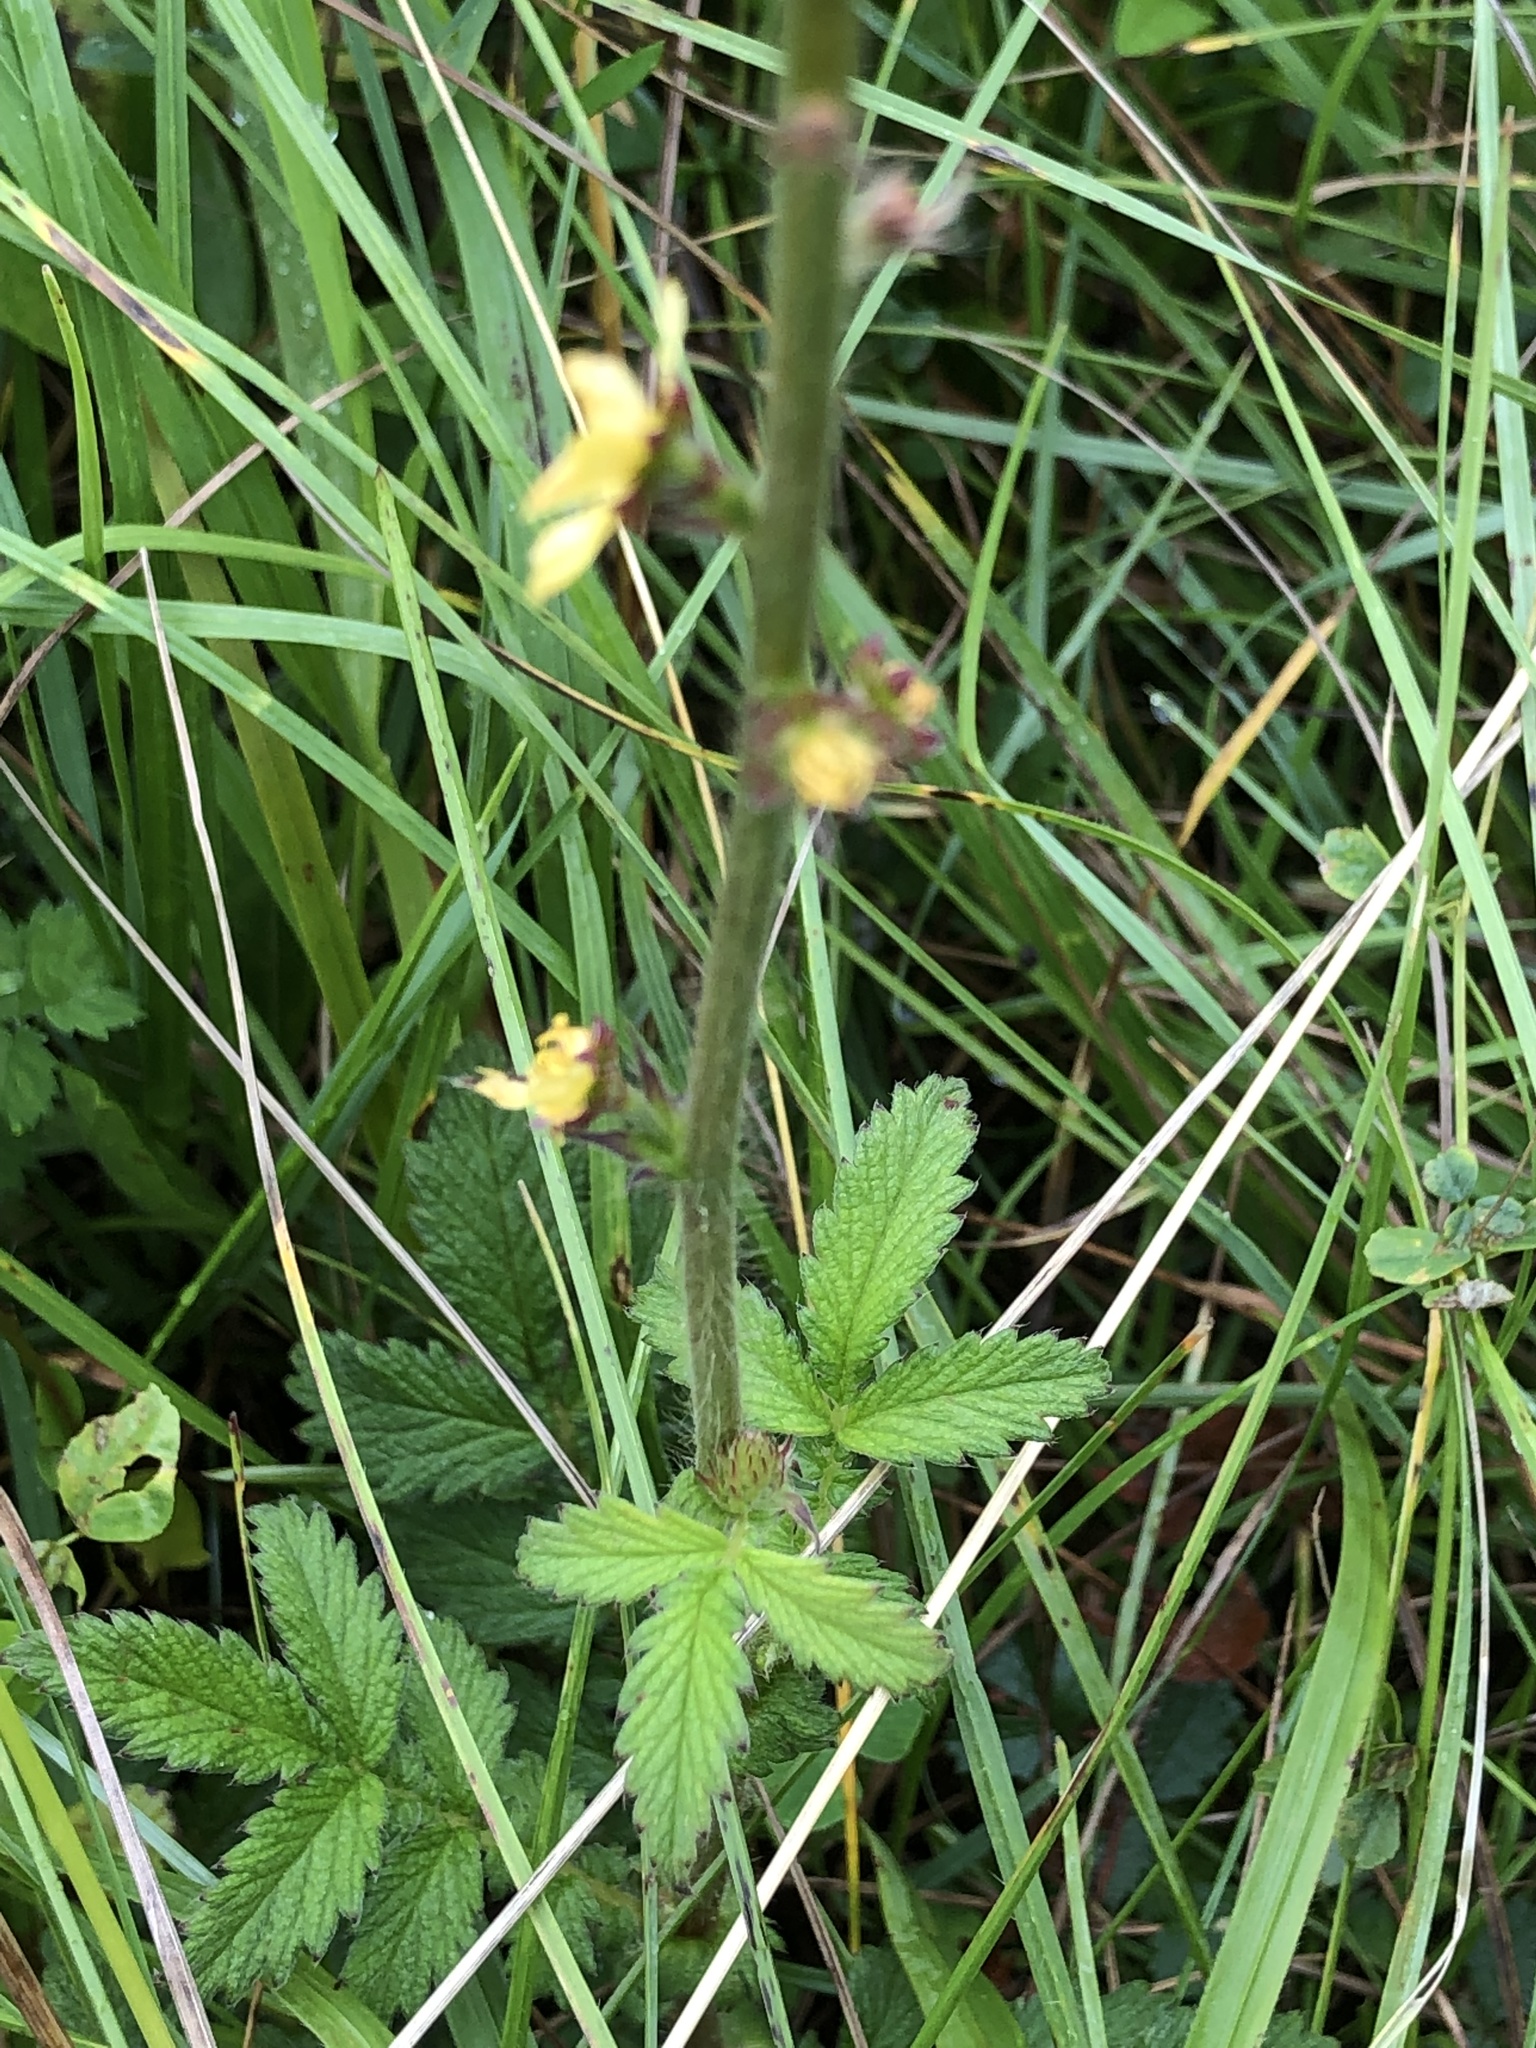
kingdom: Plantae
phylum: Tracheophyta
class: Magnoliopsida
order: Rosales
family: Rosaceae
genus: Agrimonia
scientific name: Agrimonia eupatoria
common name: Agrimony
